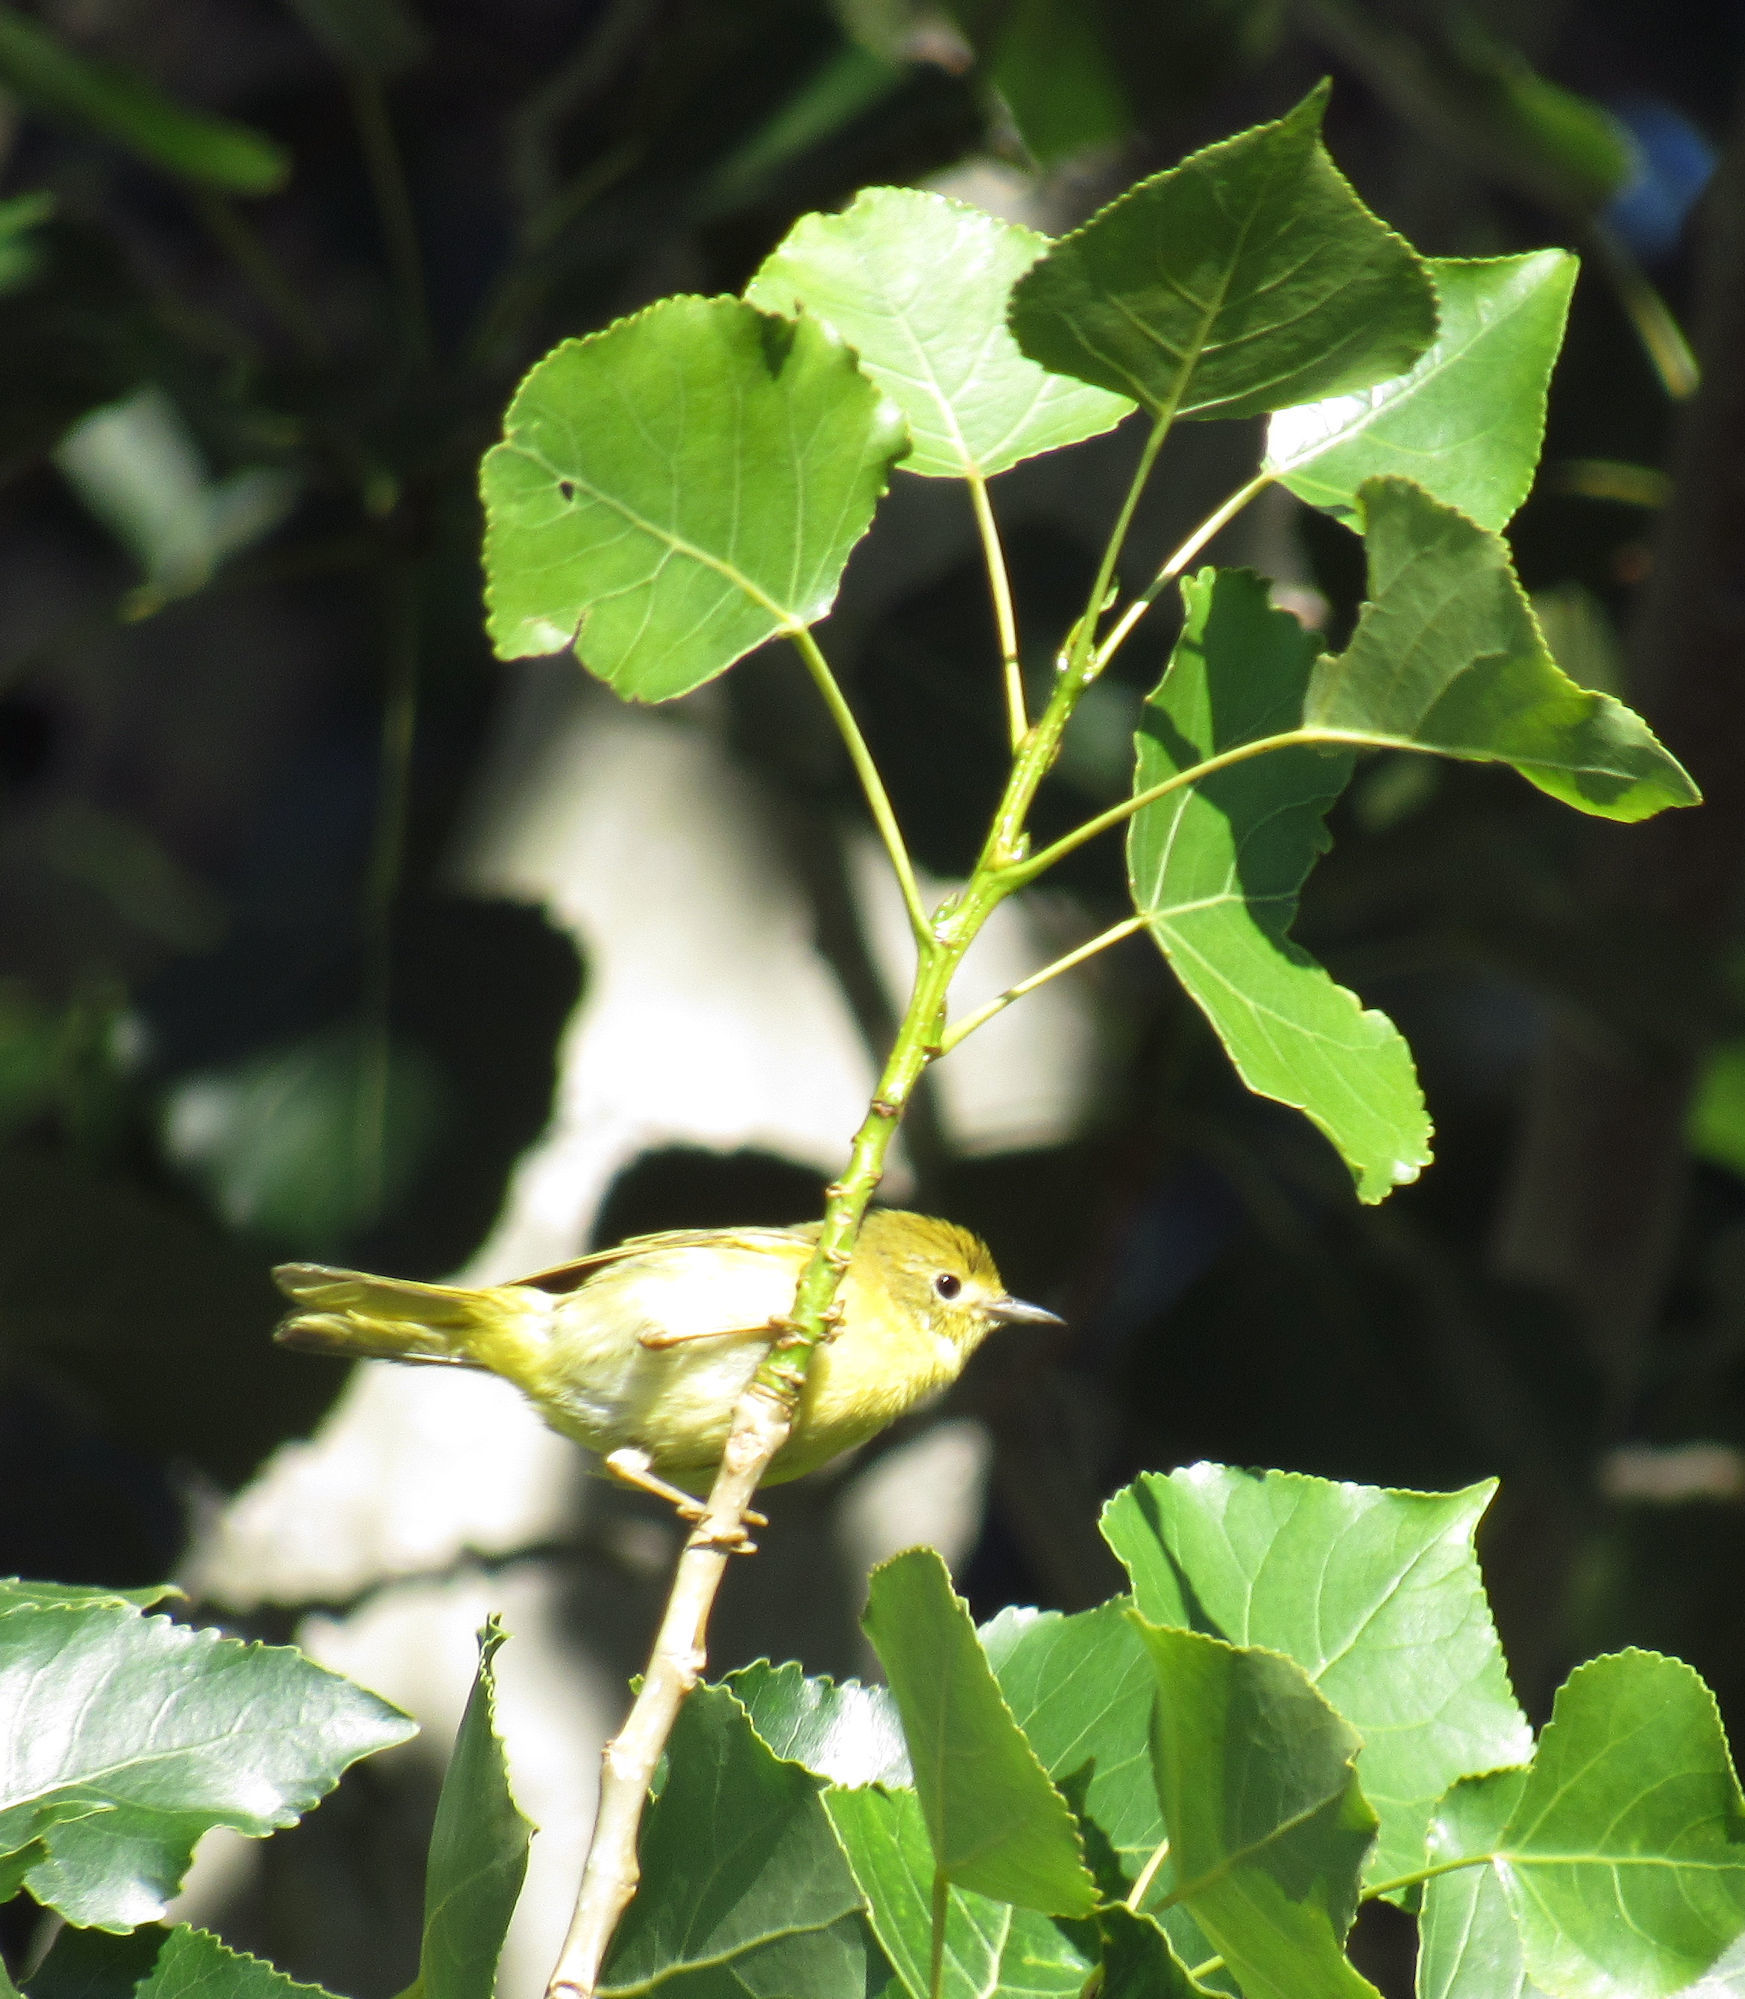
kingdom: Animalia
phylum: Chordata
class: Aves
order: Passeriformes
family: Parulidae
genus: Setophaga
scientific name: Setophaga petechia
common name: Yellow warbler
